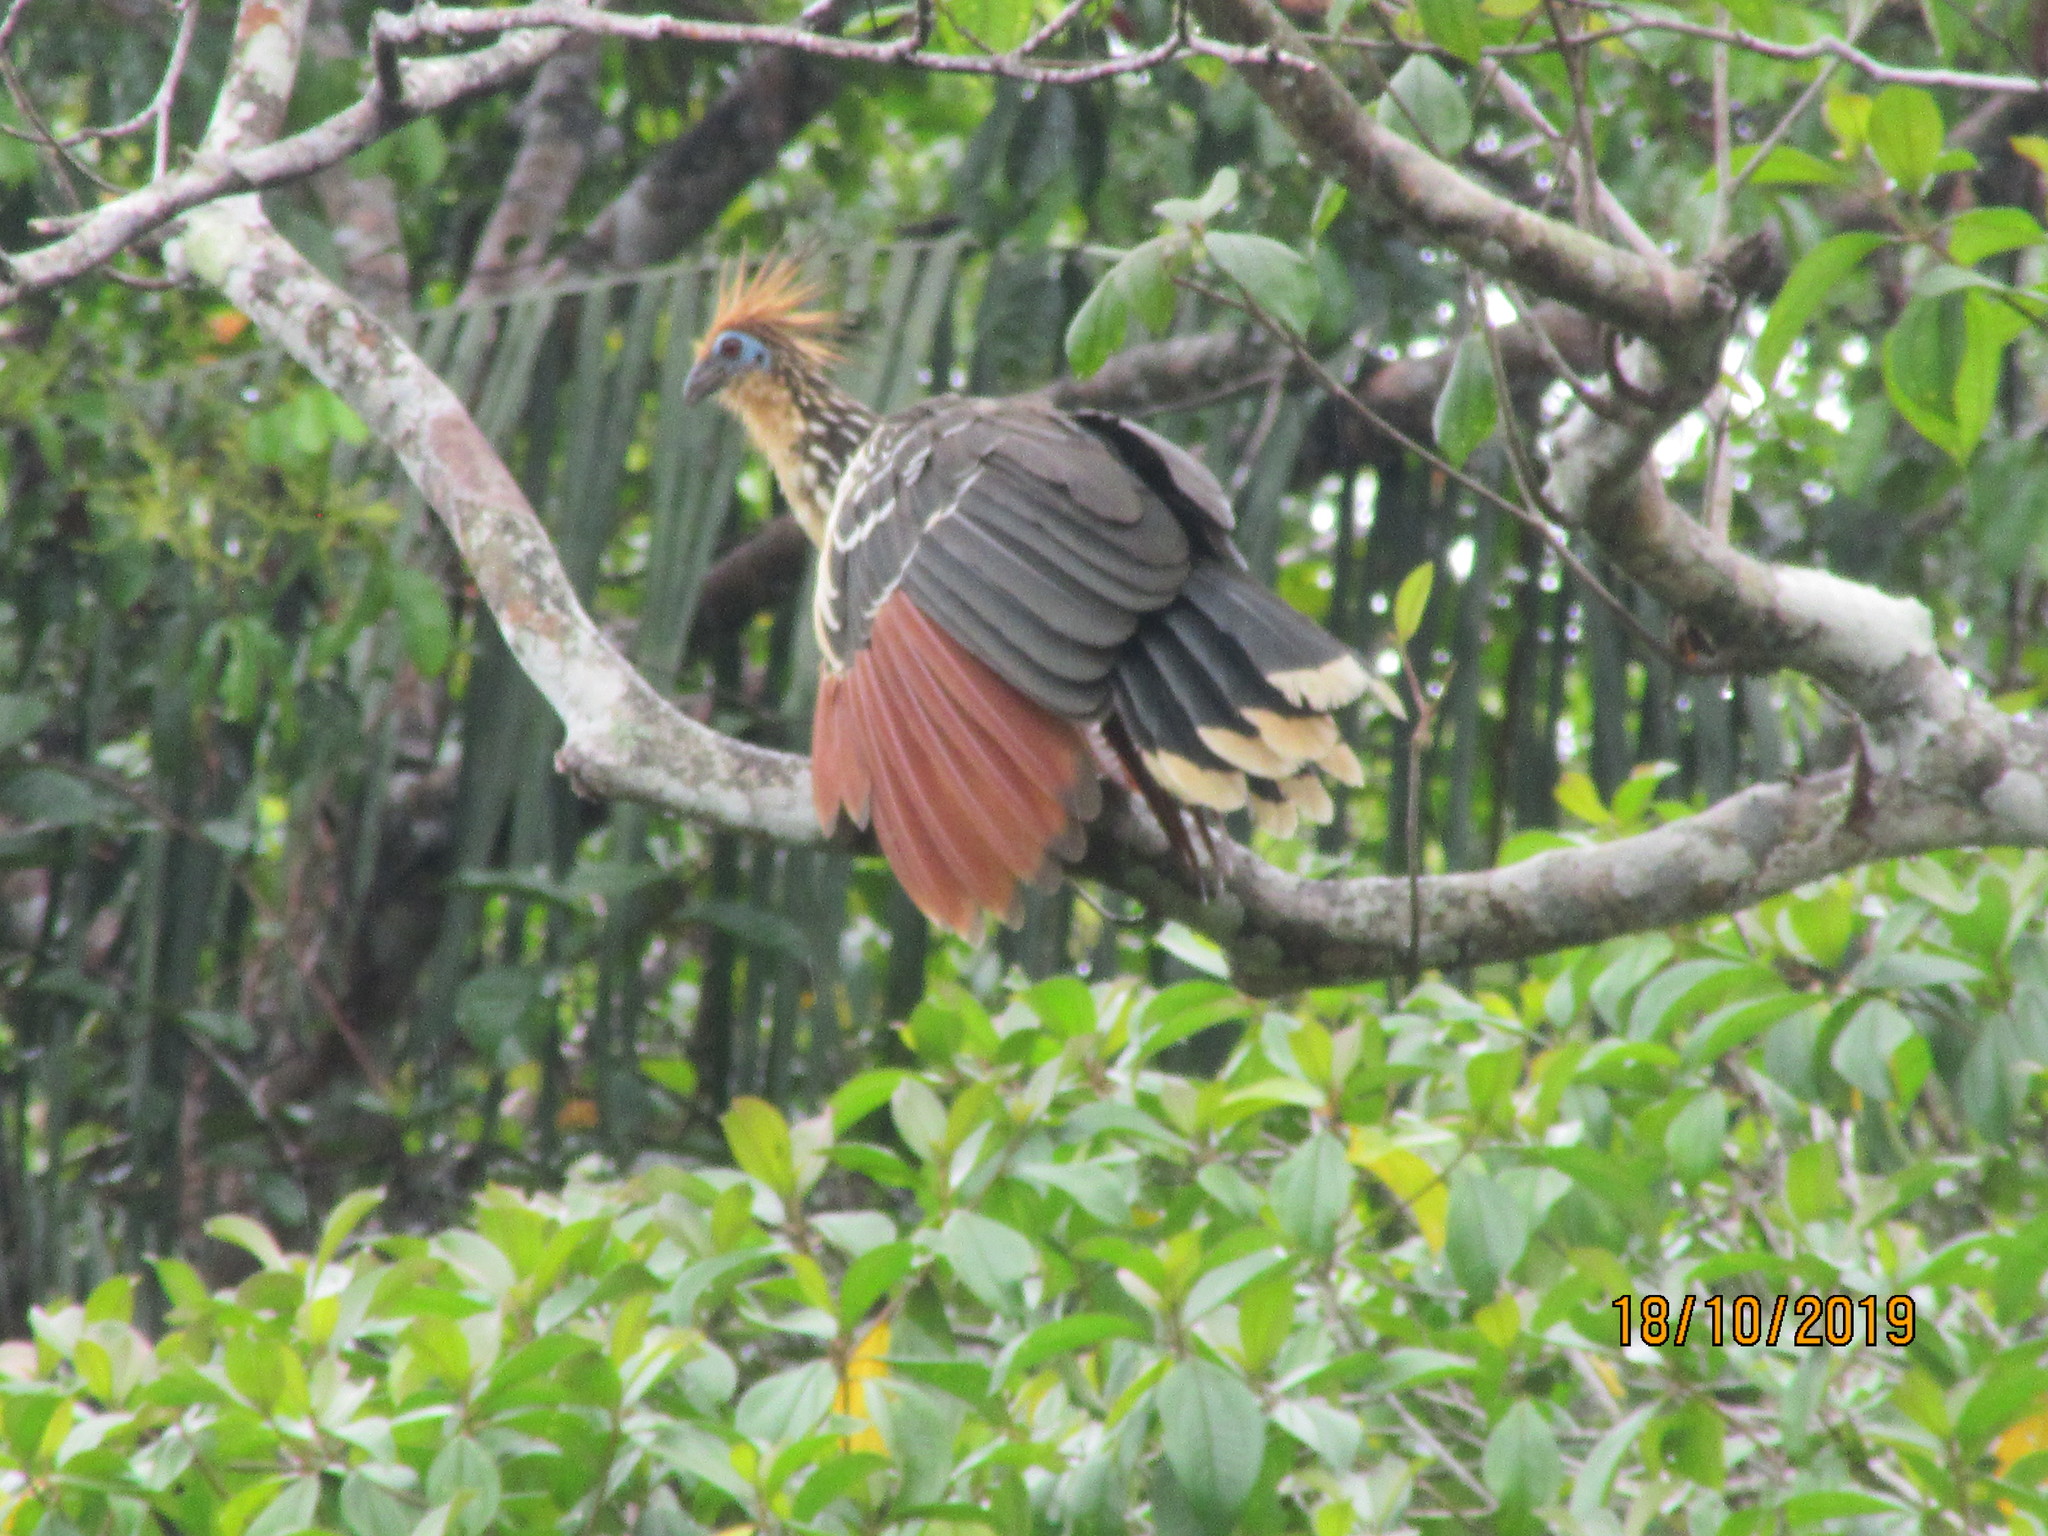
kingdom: Animalia
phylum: Chordata
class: Aves
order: Opisthocomiformes
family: Opisthocomidae
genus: Opisthocomus
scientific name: Opisthocomus hoazin
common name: Hoatzin
